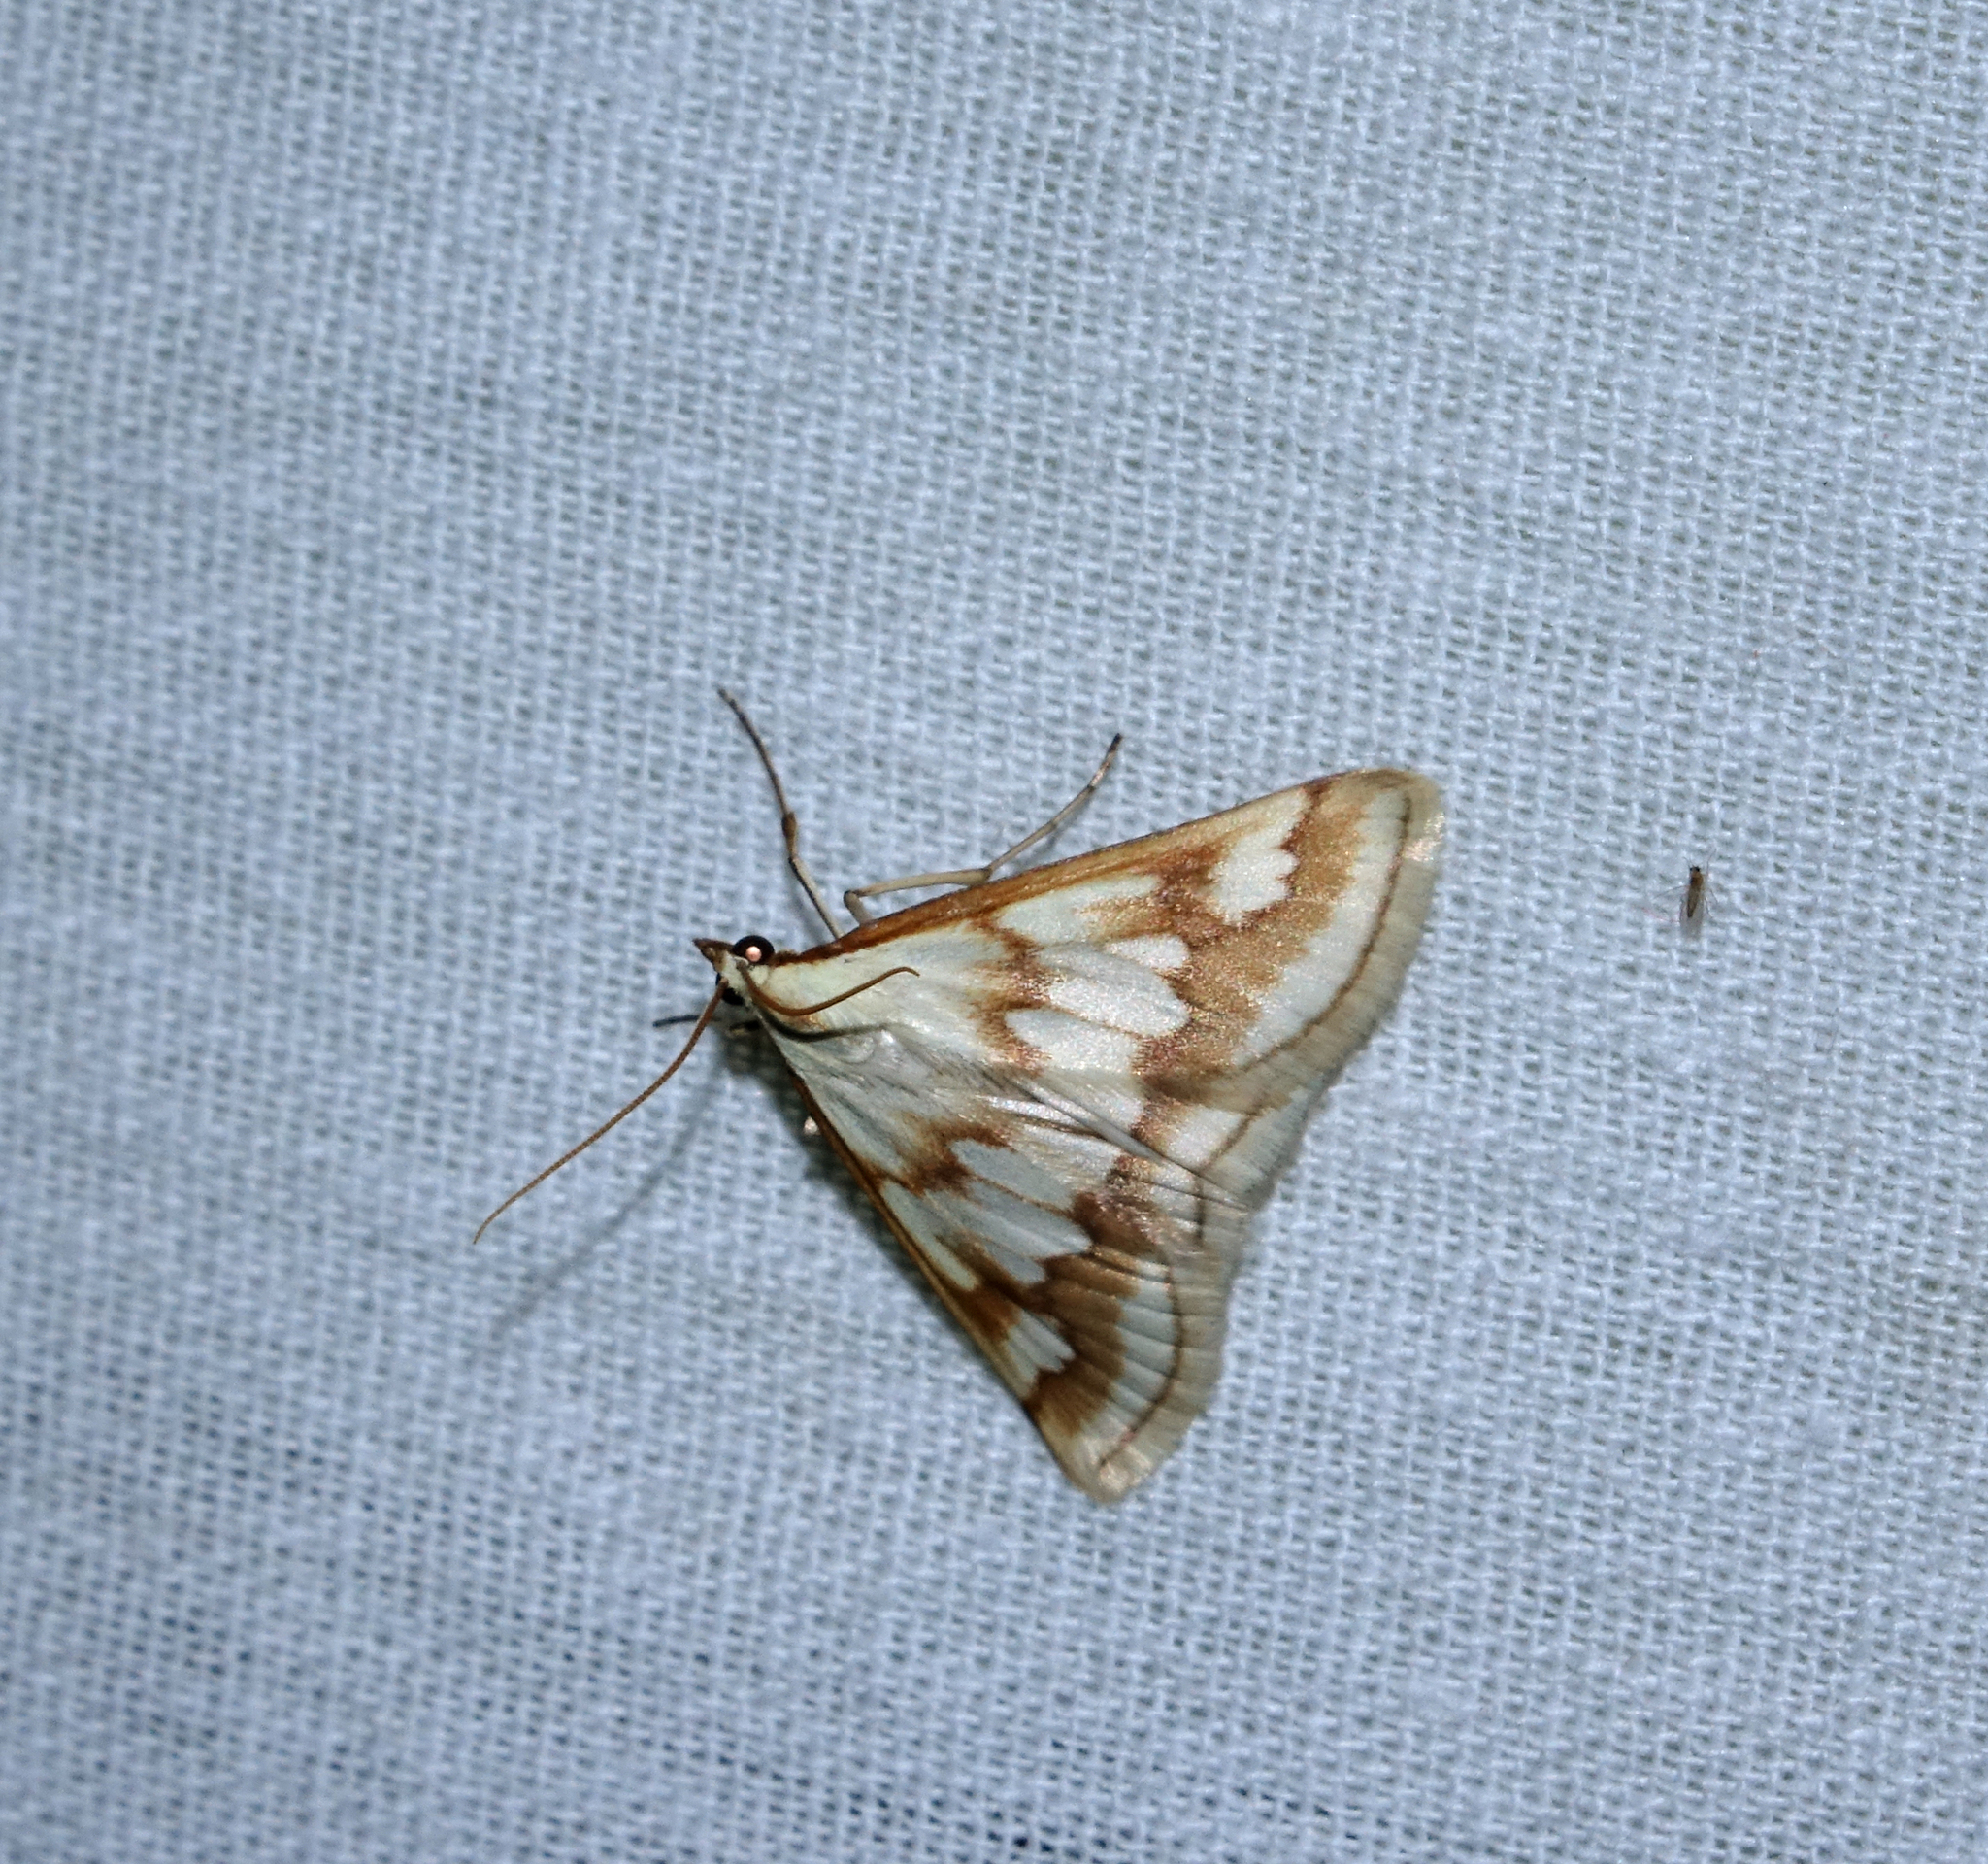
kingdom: Animalia
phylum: Arthropoda
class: Insecta
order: Lepidoptera
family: Crambidae
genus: Ephelis
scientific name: Ephelis cruentalis
